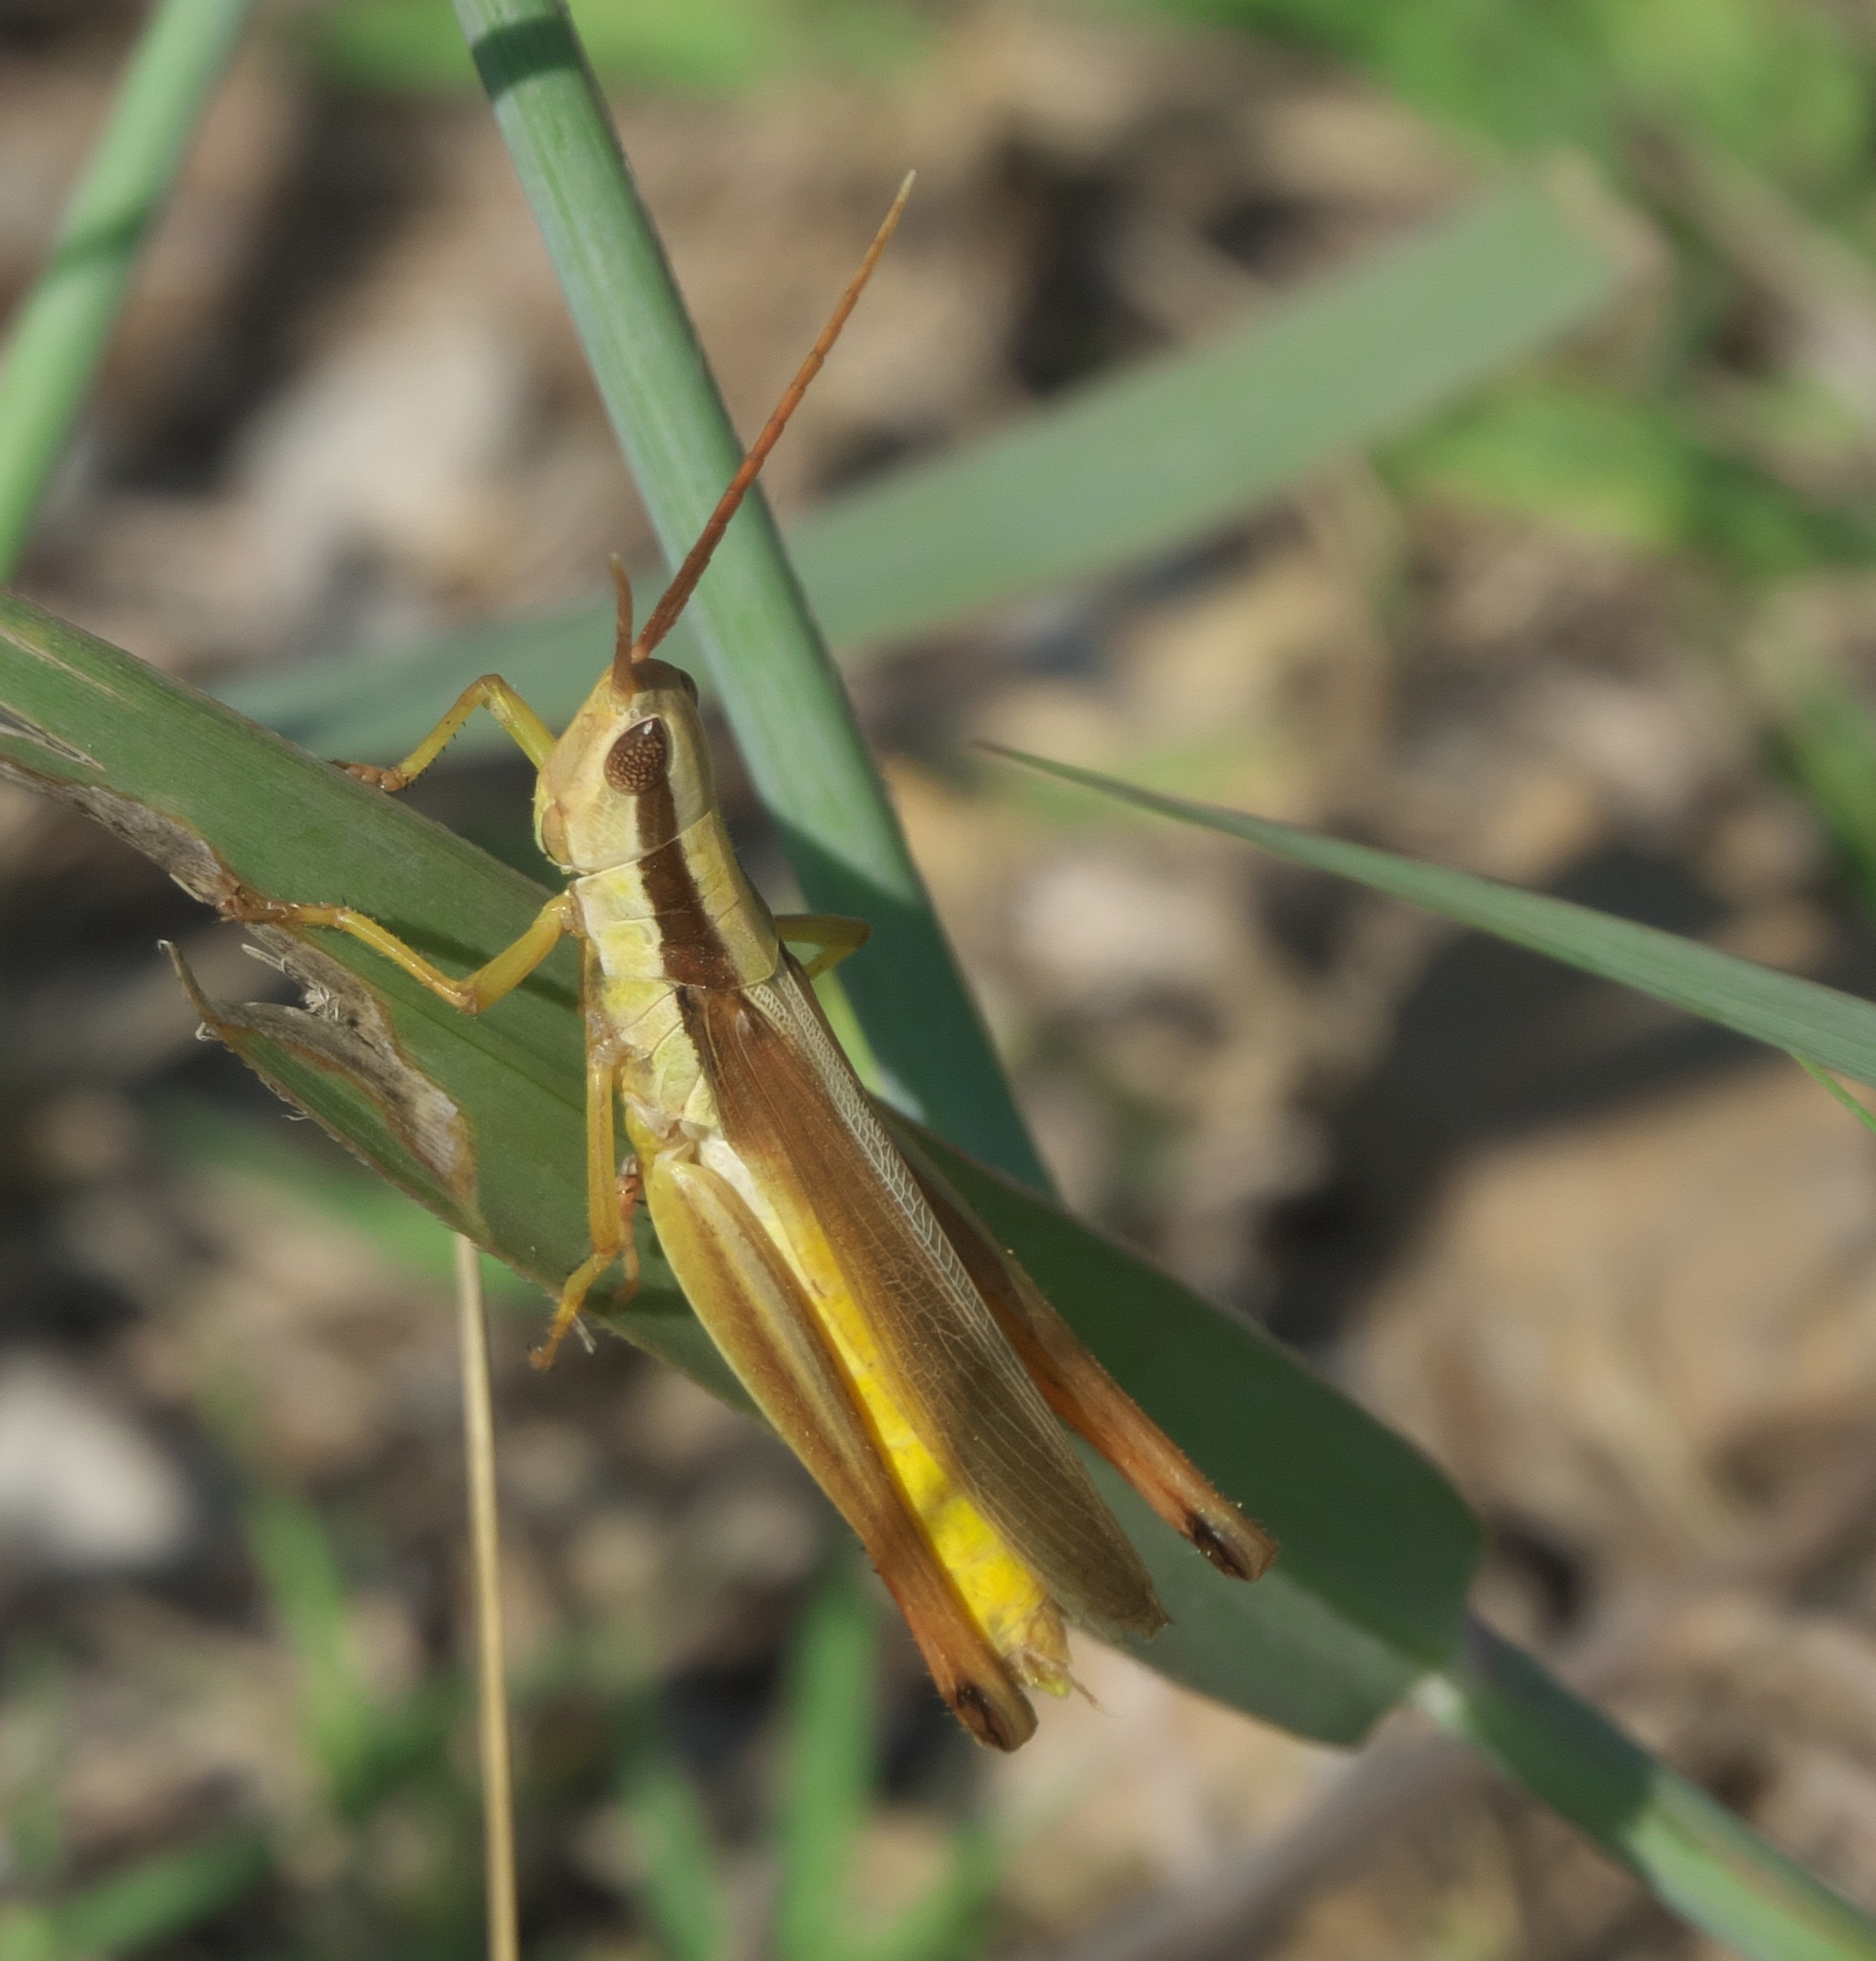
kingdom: Animalia
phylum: Arthropoda
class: Insecta
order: Orthoptera
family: Acrididae
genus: Mermiria
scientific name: Mermiria bivittata
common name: Two-striped mermiria grasshopper
